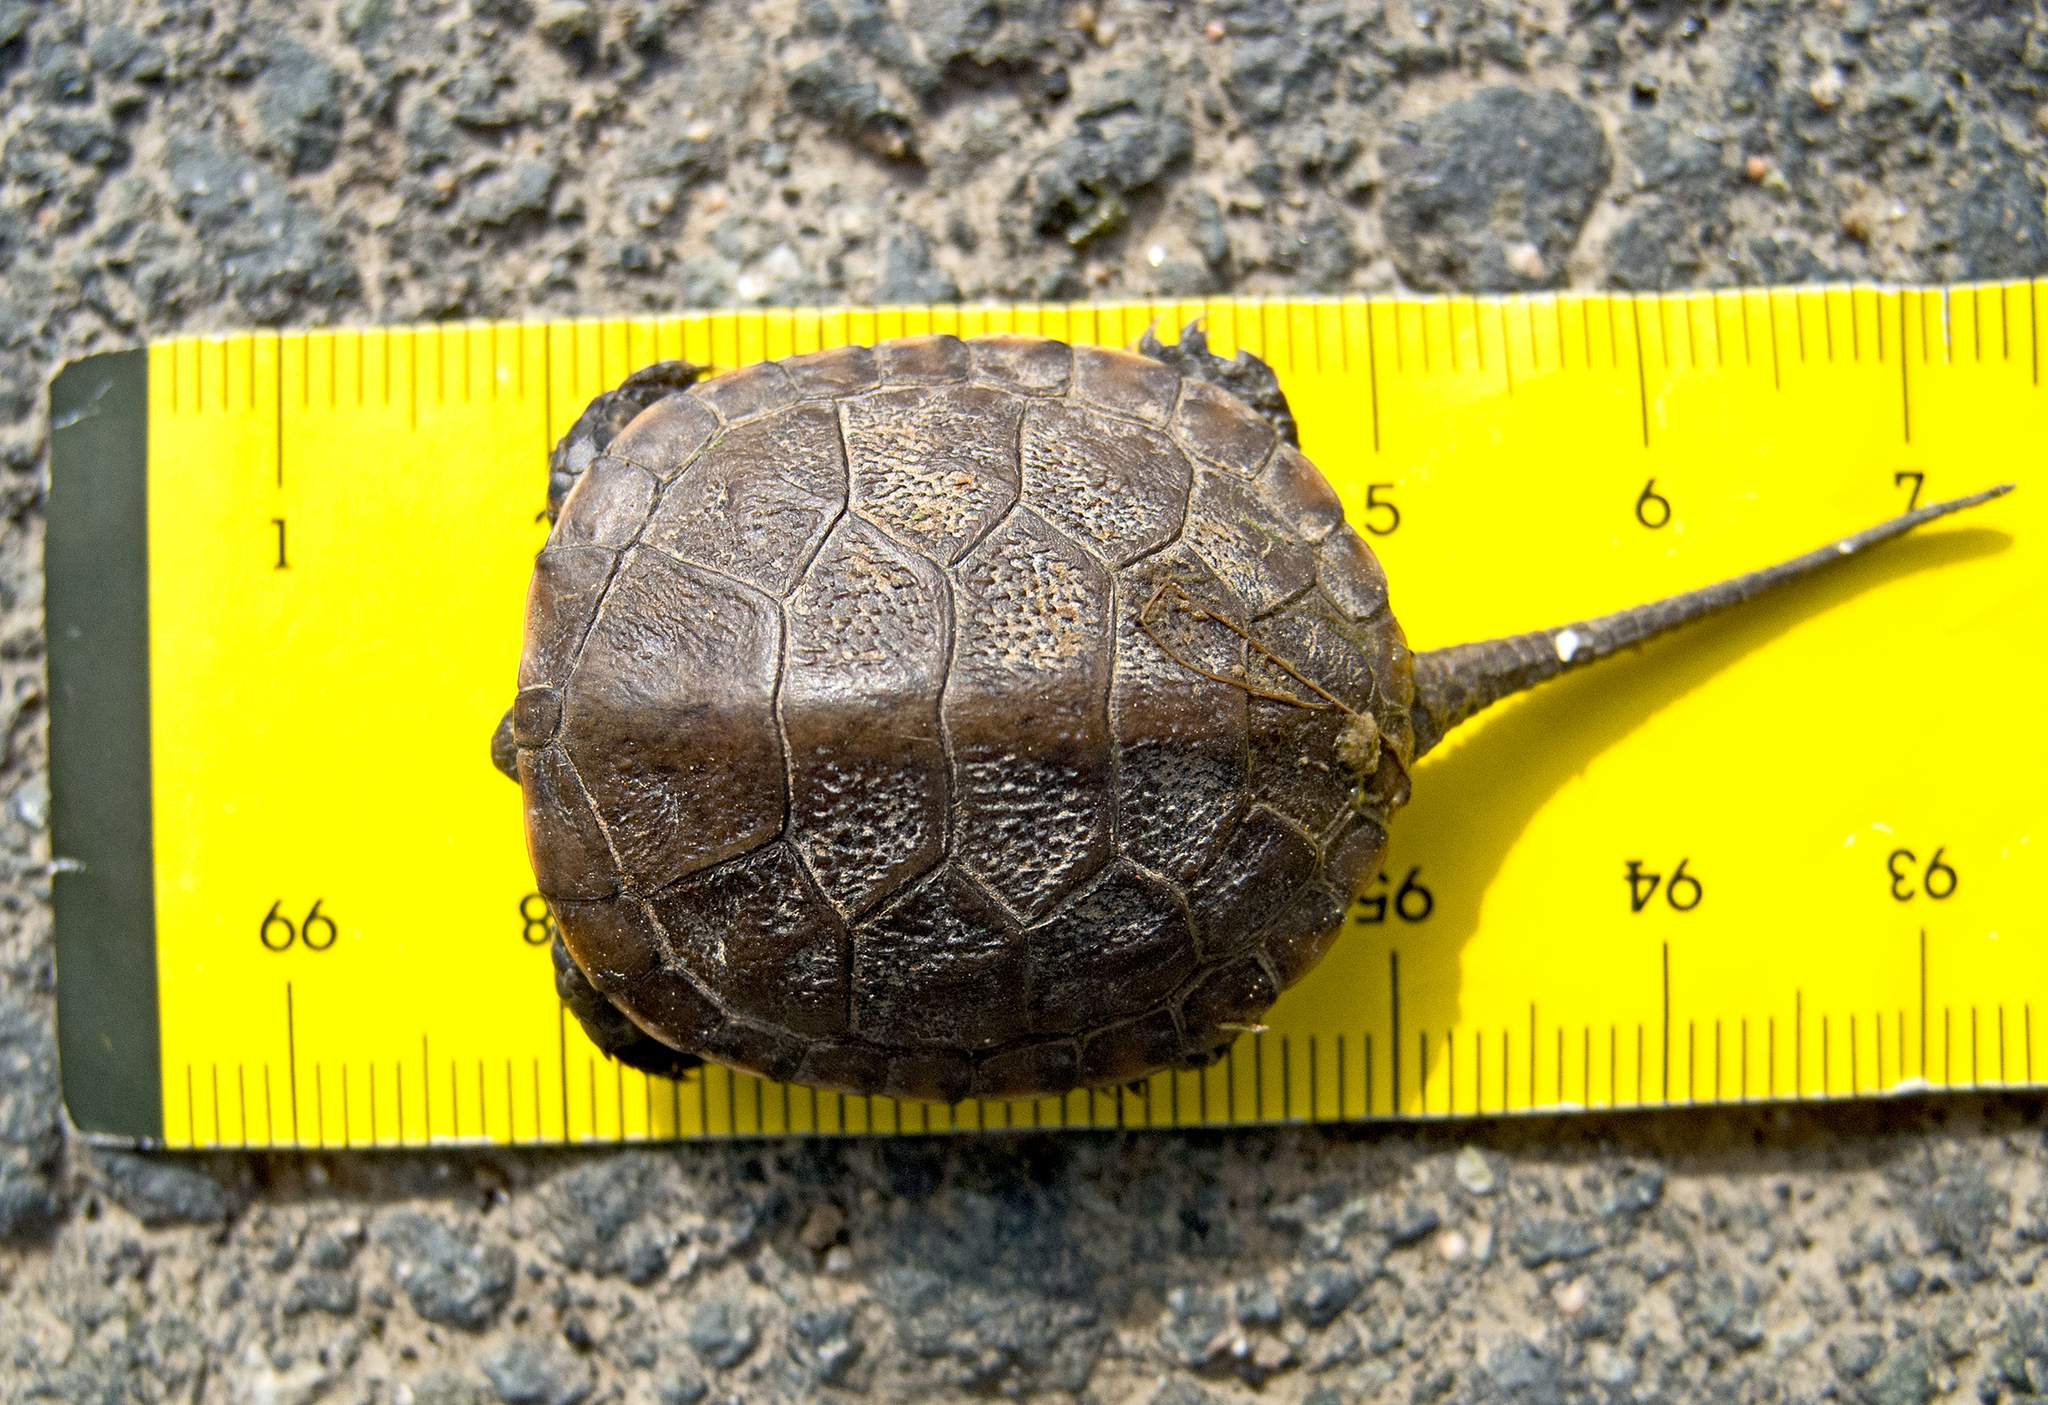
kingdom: Animalia
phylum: Chordata
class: Testudines
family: Emydidae
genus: Emys
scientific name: Emys orbicularis
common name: European pond turtle
